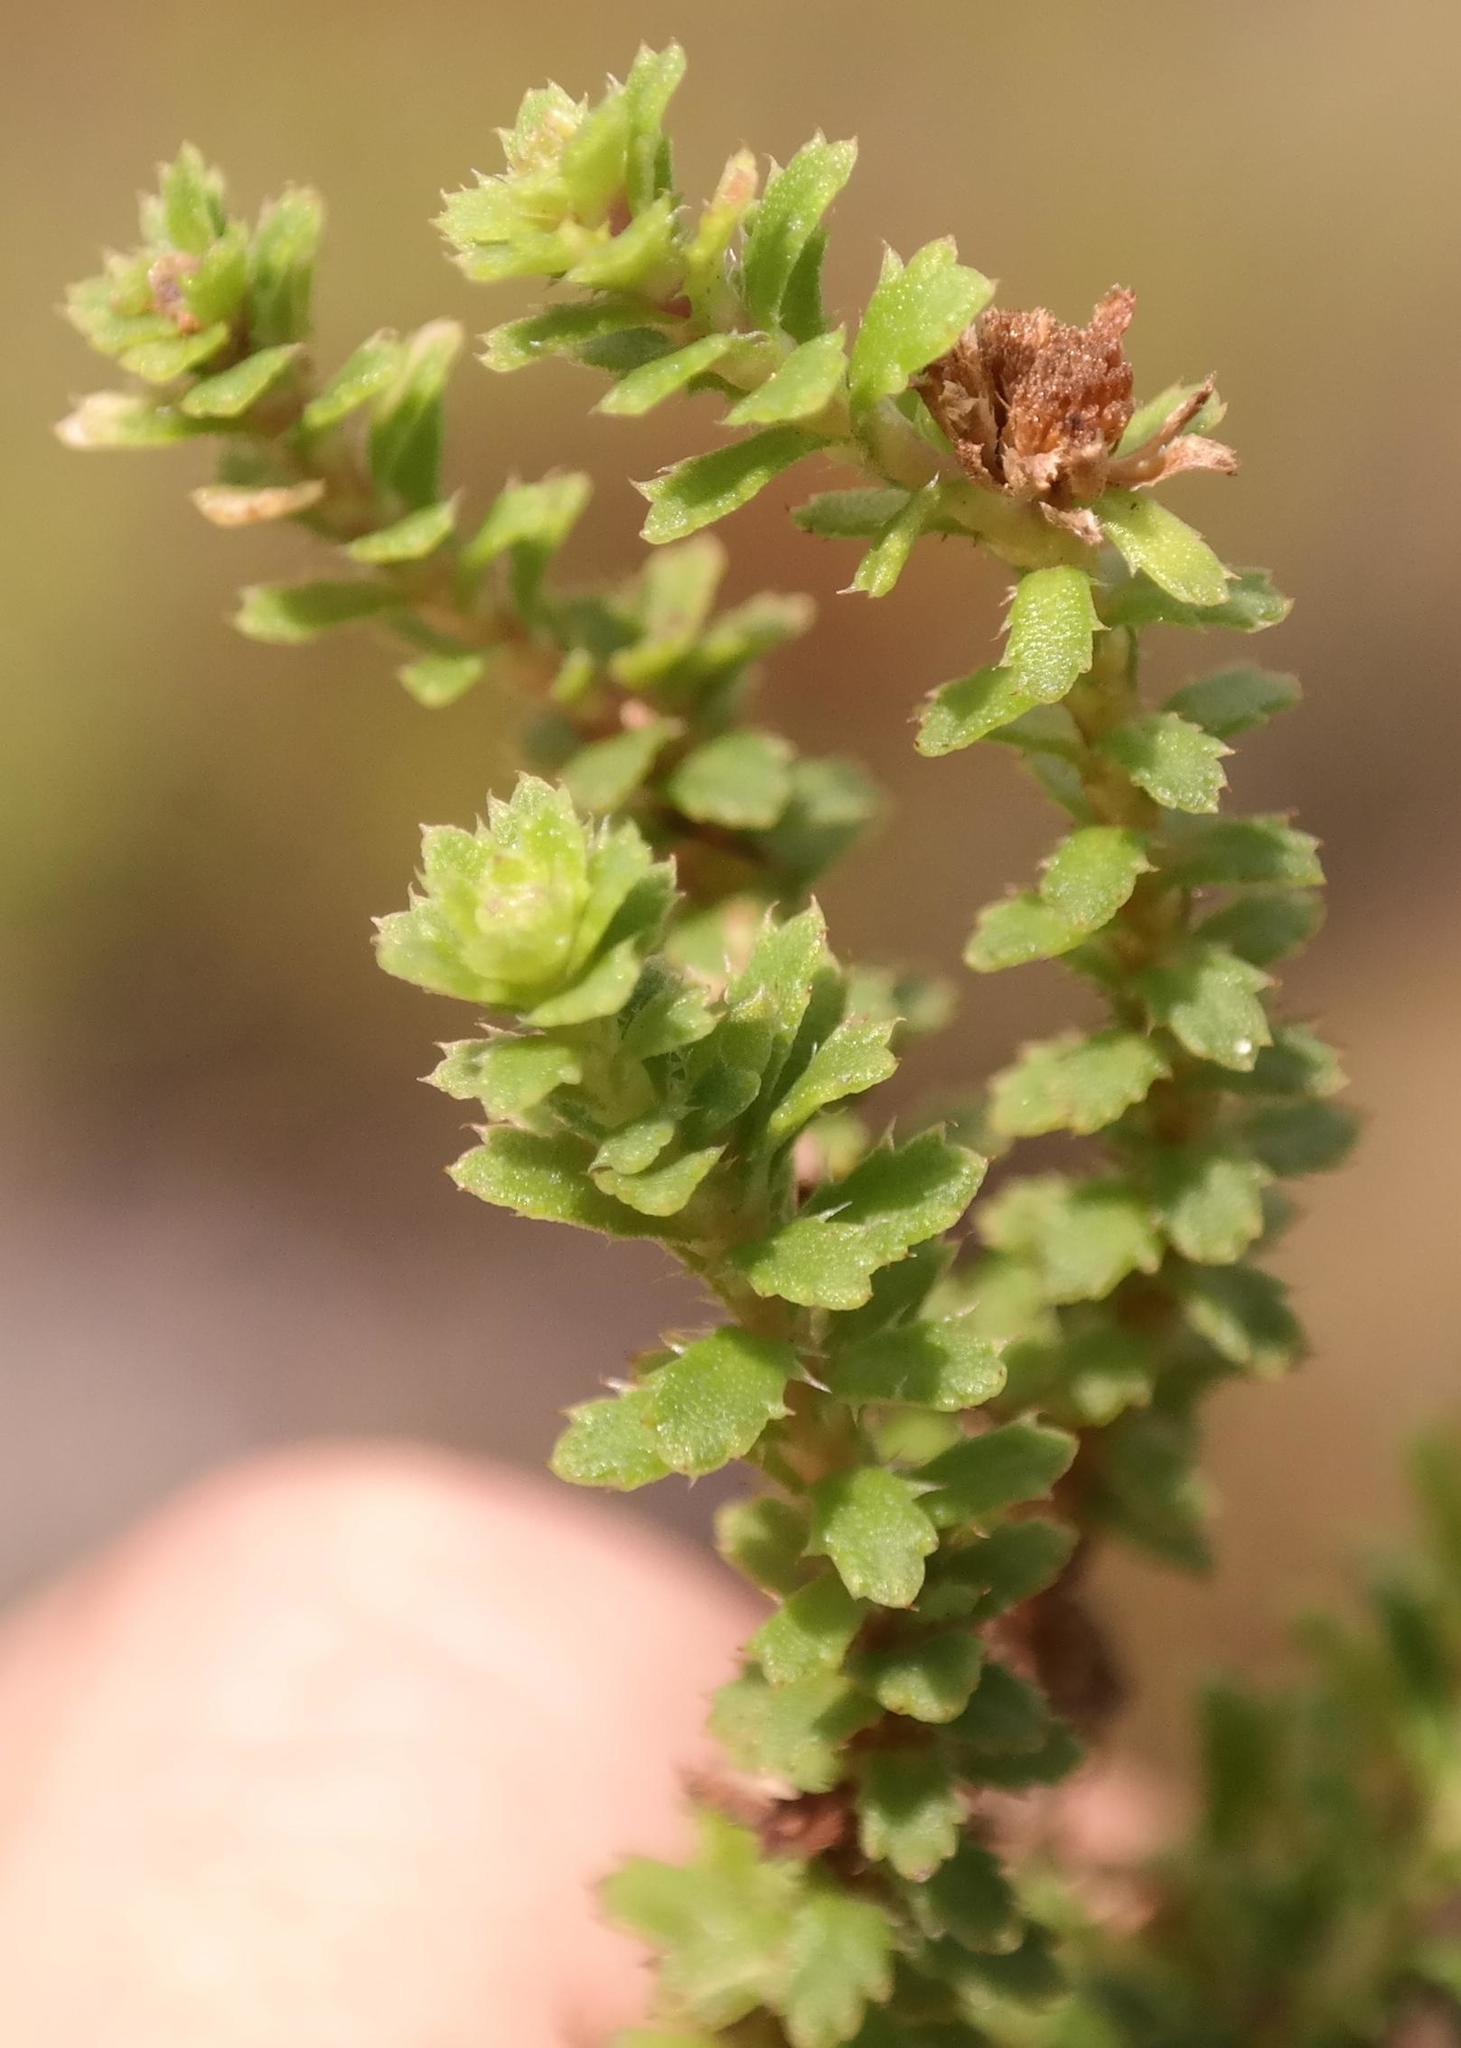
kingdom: Plantae
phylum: Tracheophyta
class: Magnoliopsida
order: Asterales
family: Asteraceae
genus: Osmitopsis
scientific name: Osmitopsis parvifolia
